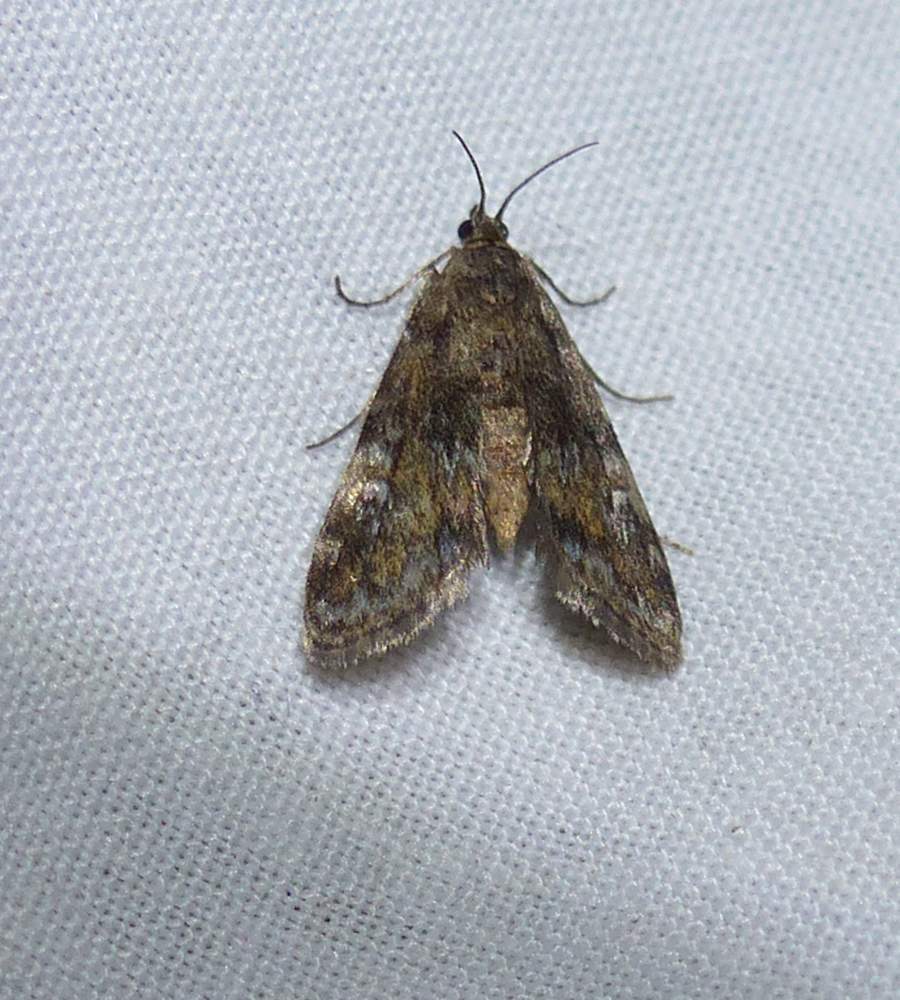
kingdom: Animalia
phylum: Arthropoda
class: Insecta
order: Lepidoptera
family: Crambidae
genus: Elophila
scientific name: Elophila obliteralis
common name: Waterlily leafcutter moth
